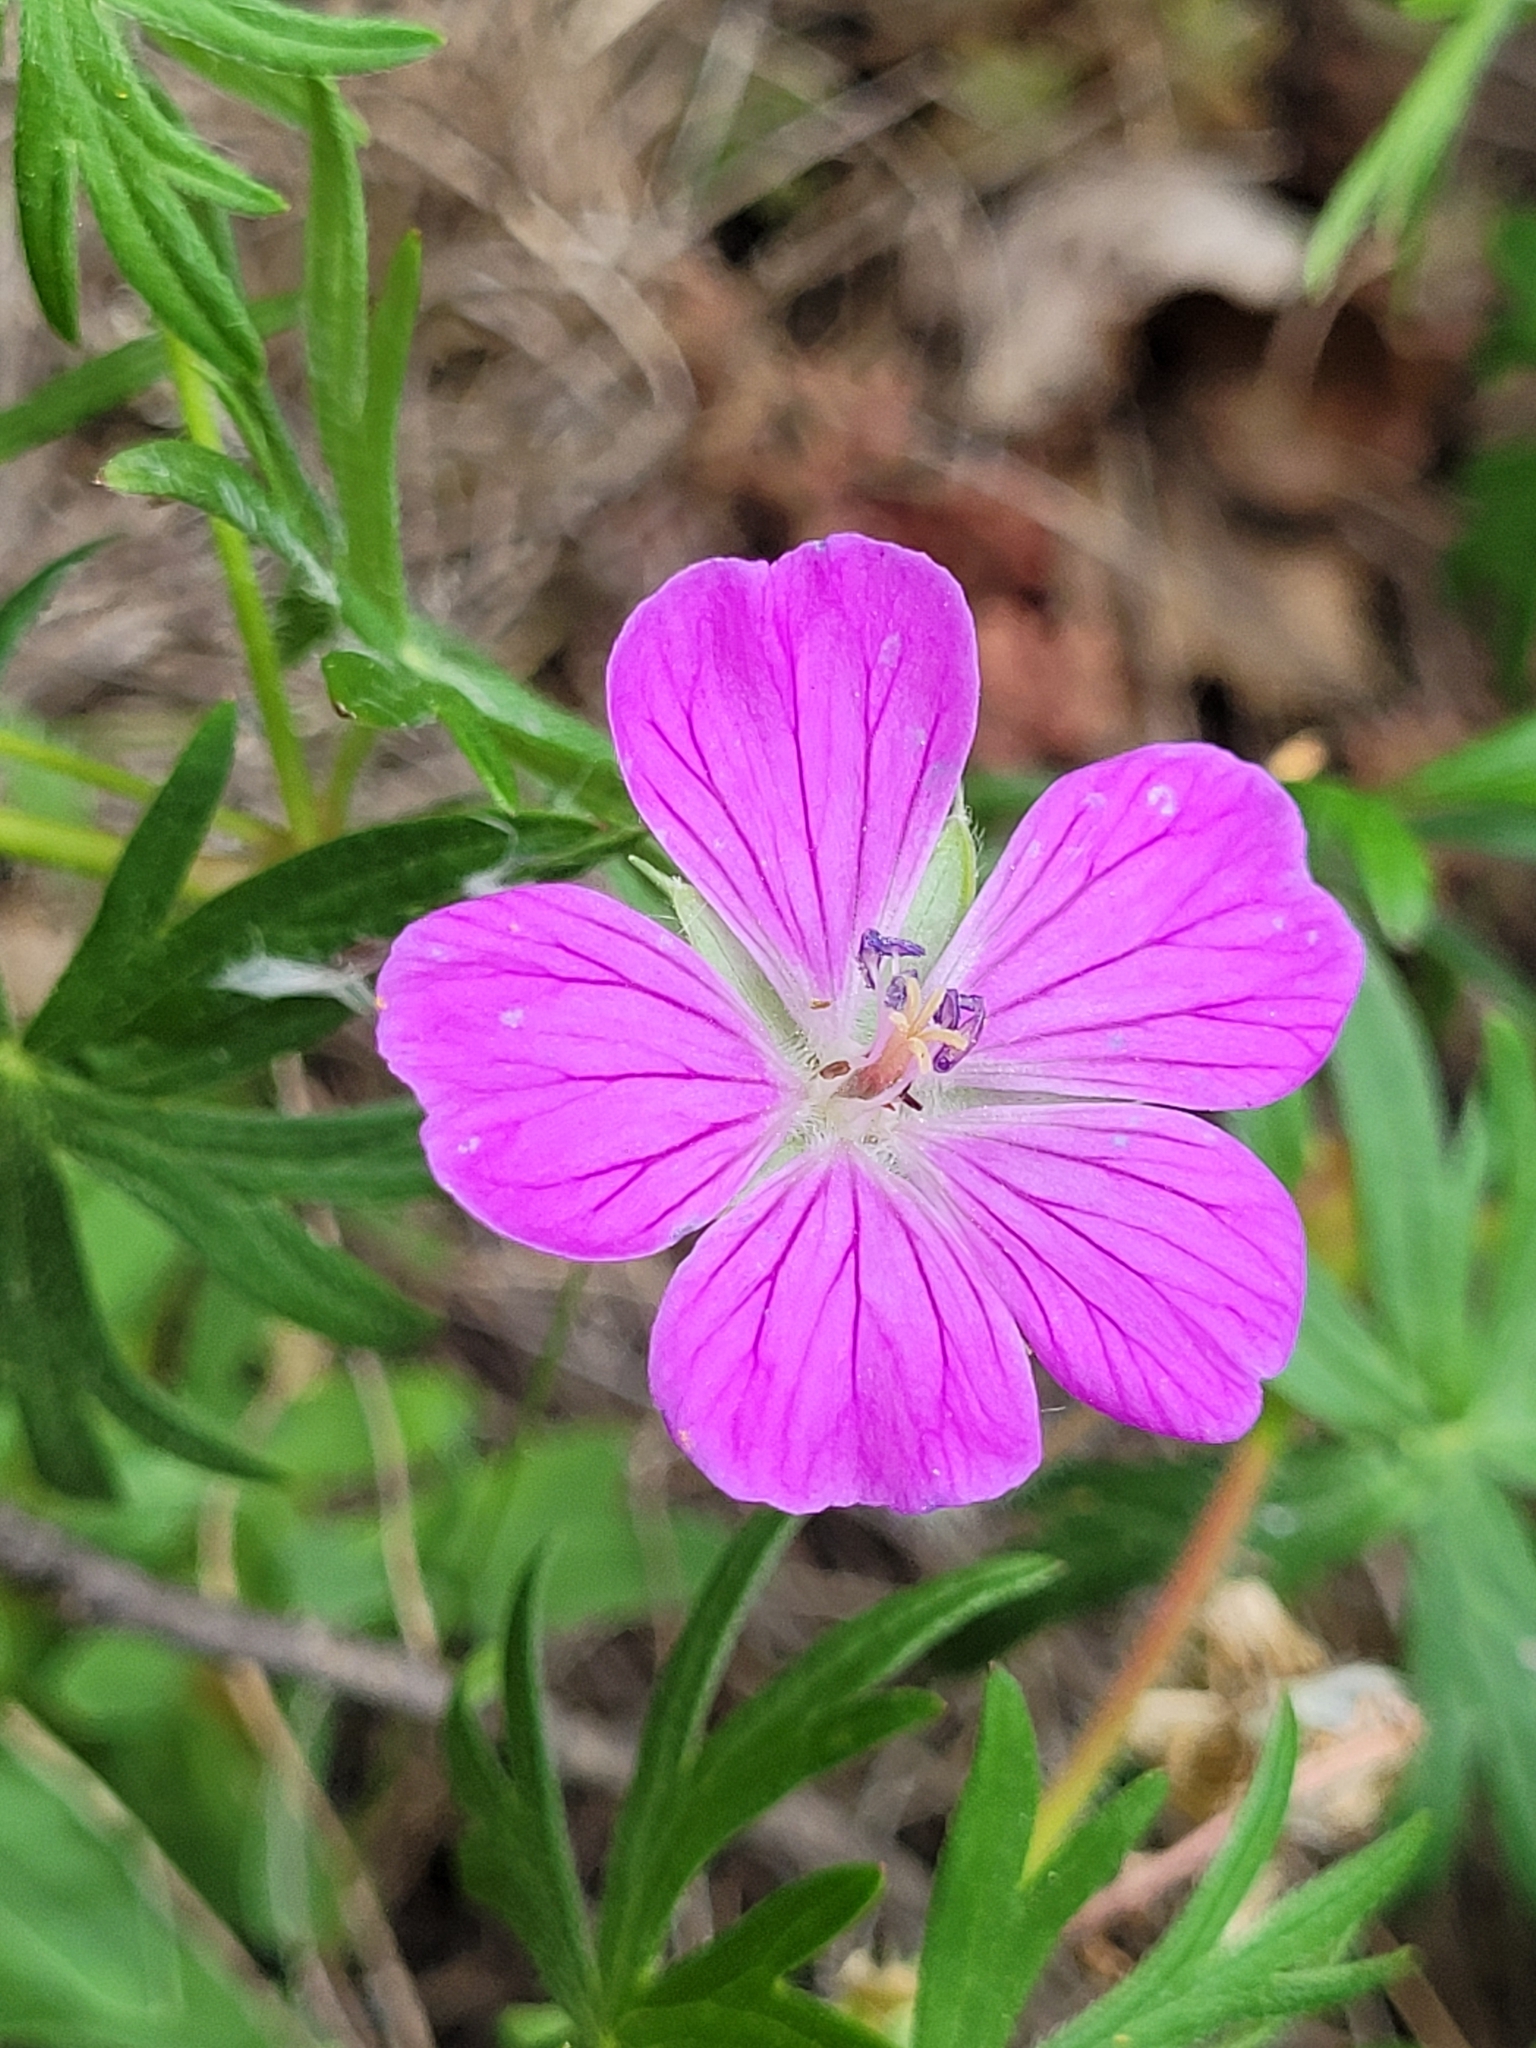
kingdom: Plantae
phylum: Tracheophyta
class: Magnoliopsida
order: Geraniales
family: Geraniaceae
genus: Geranium
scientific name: Geranium sanguineum
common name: Bloody crane's-bill
